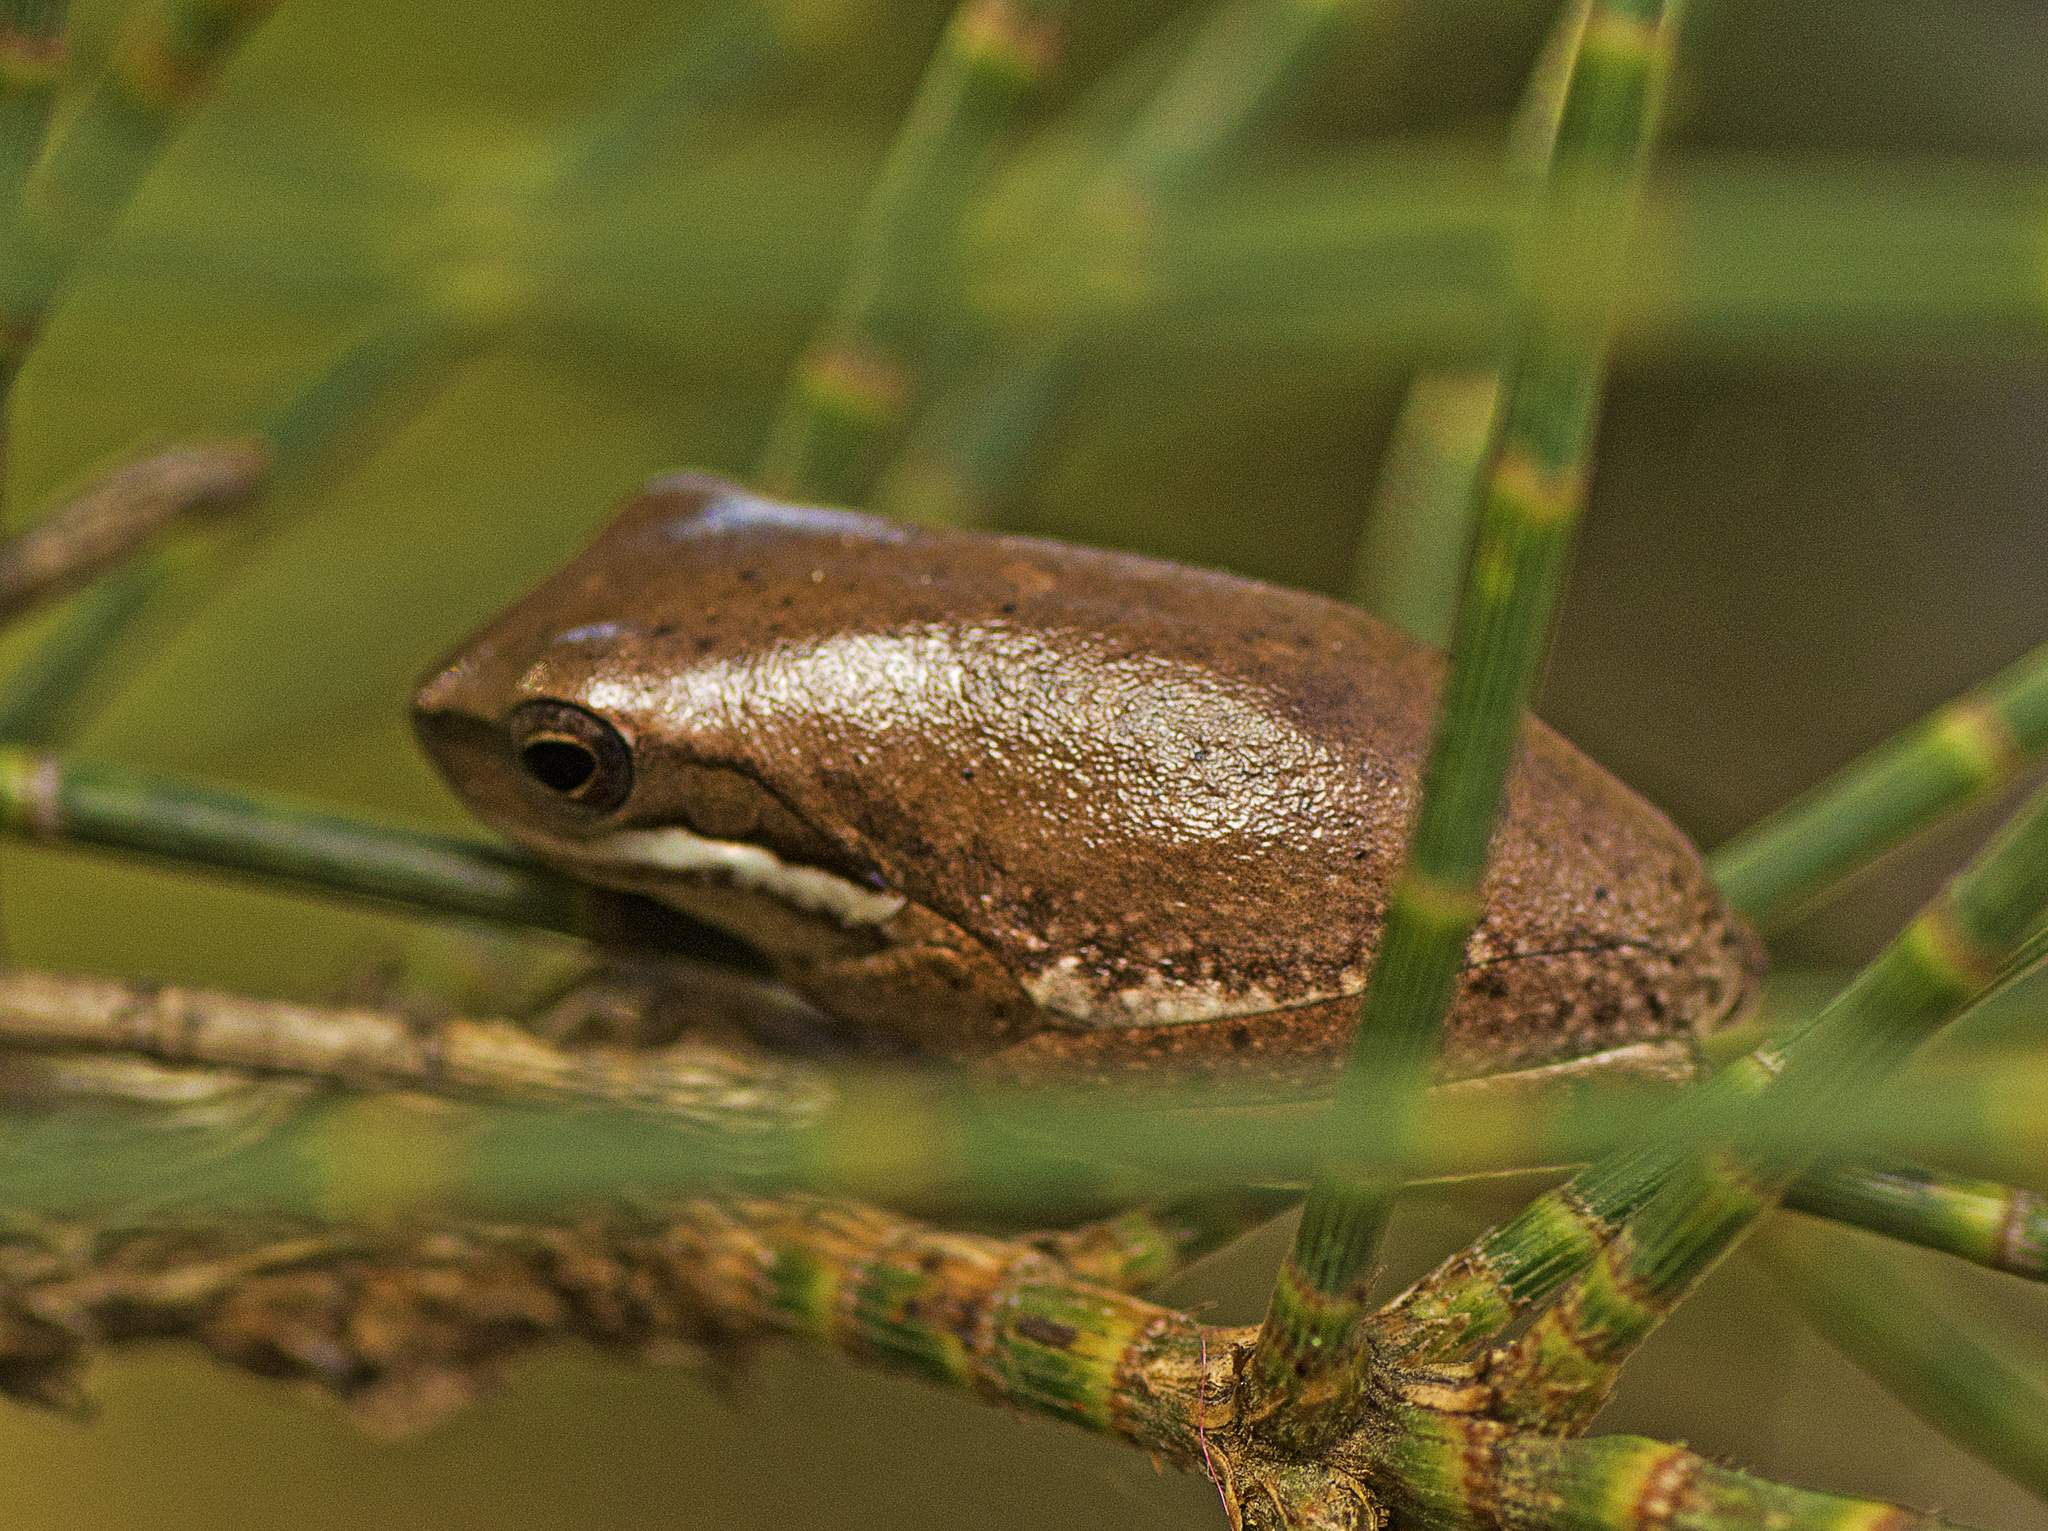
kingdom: Animalia
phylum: Chordata
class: Amphibia
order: Anura
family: Pelodryadidae
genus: Litoria
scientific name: Litoria fallax
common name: Eastern dwarf treefrog
